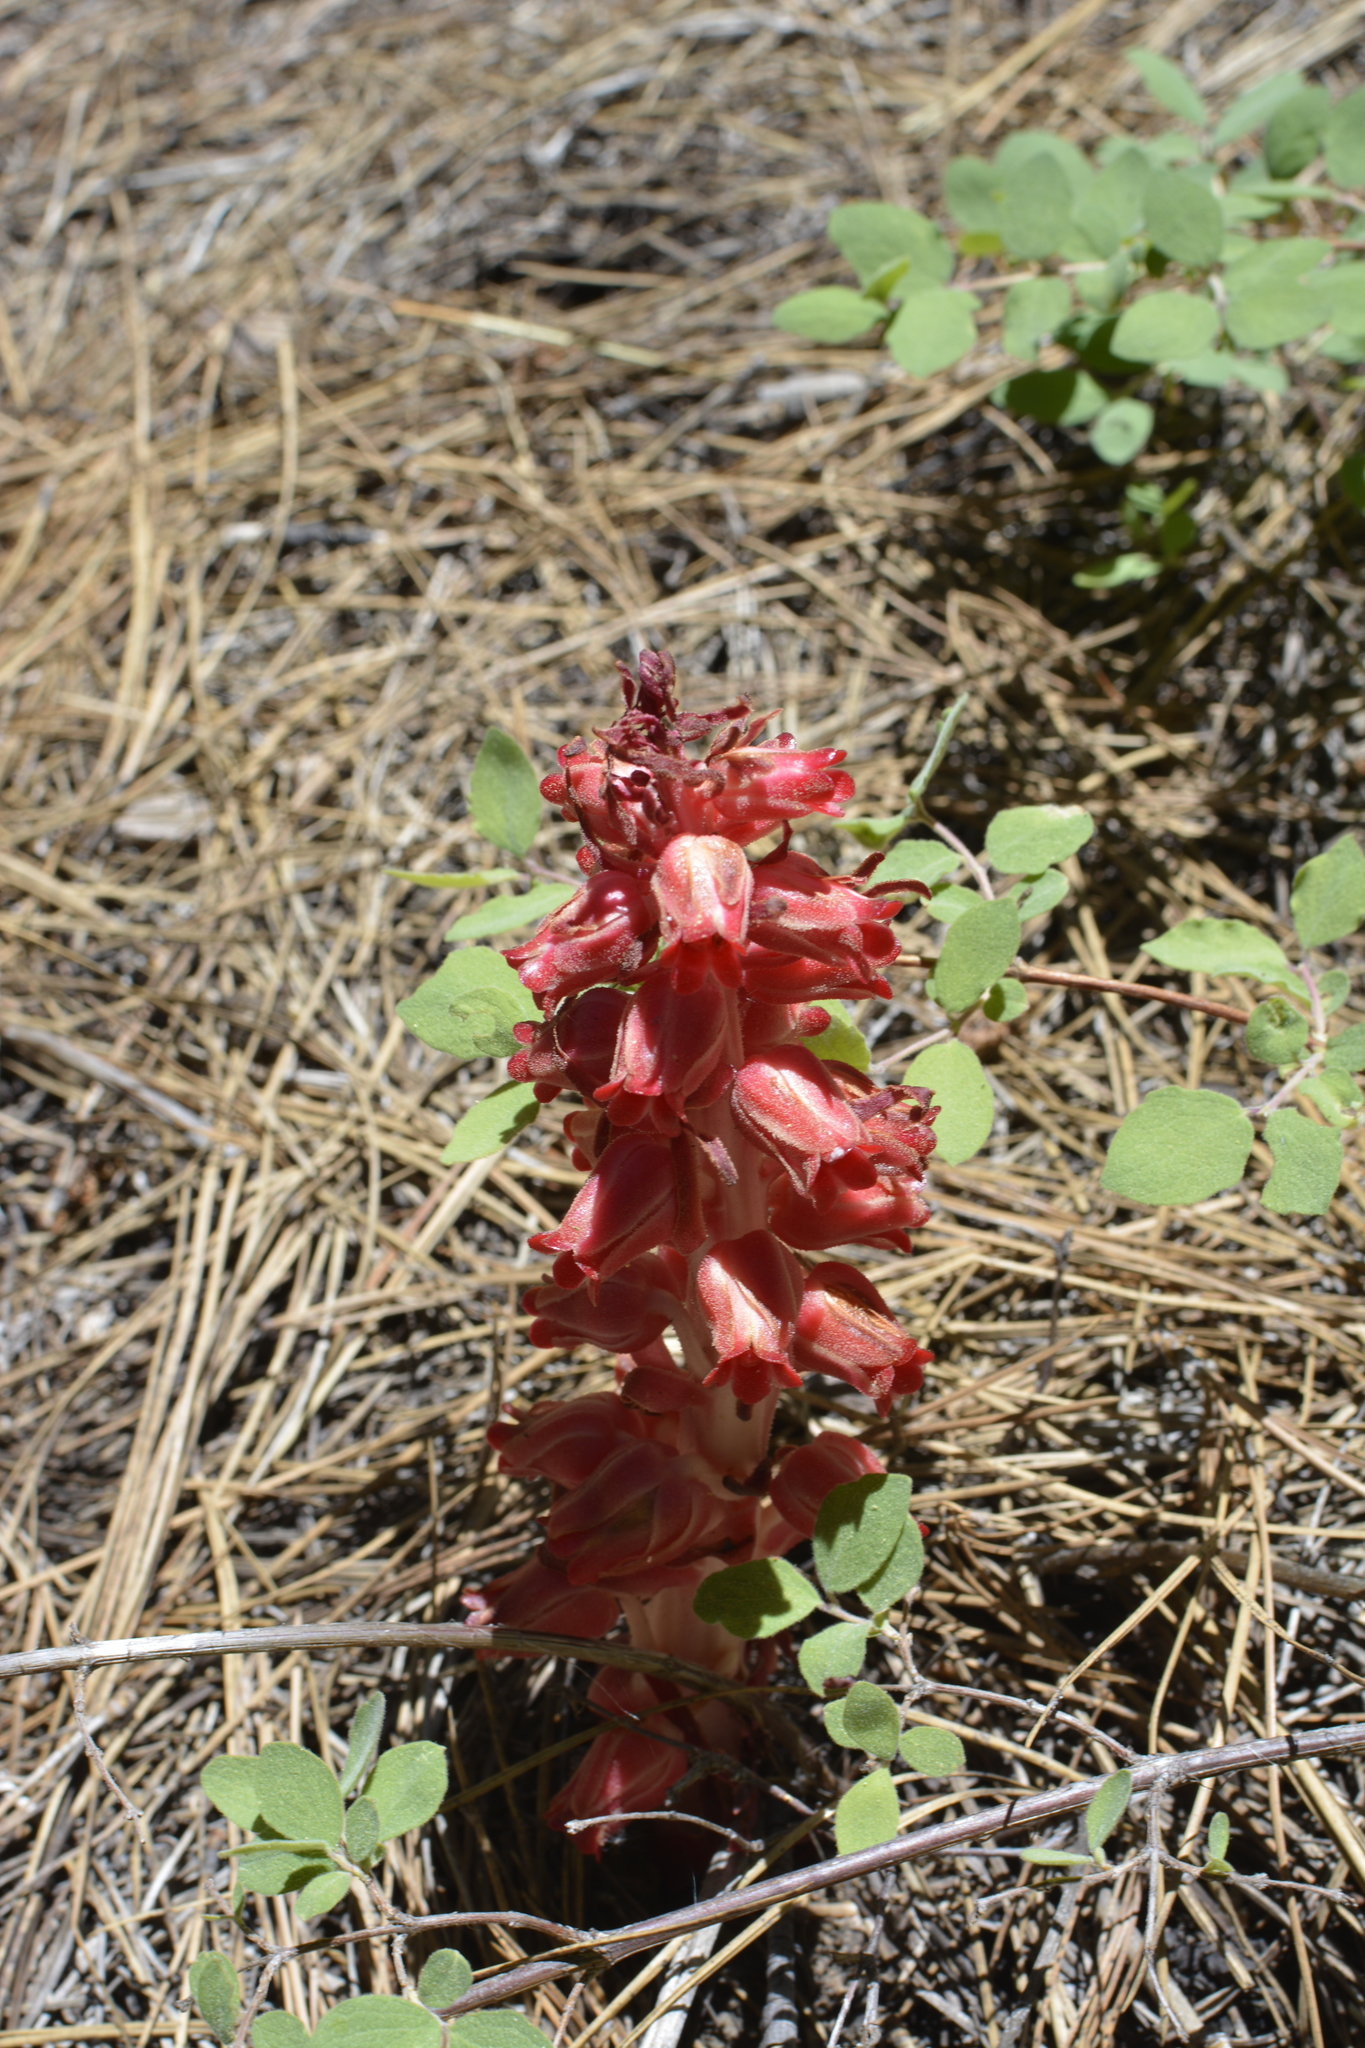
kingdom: Plantae
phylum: Tracheophyta
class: Magnoliopsida
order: Ericales
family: Ericaceae
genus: Sarcodes
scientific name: Sarcodes sanguinea
